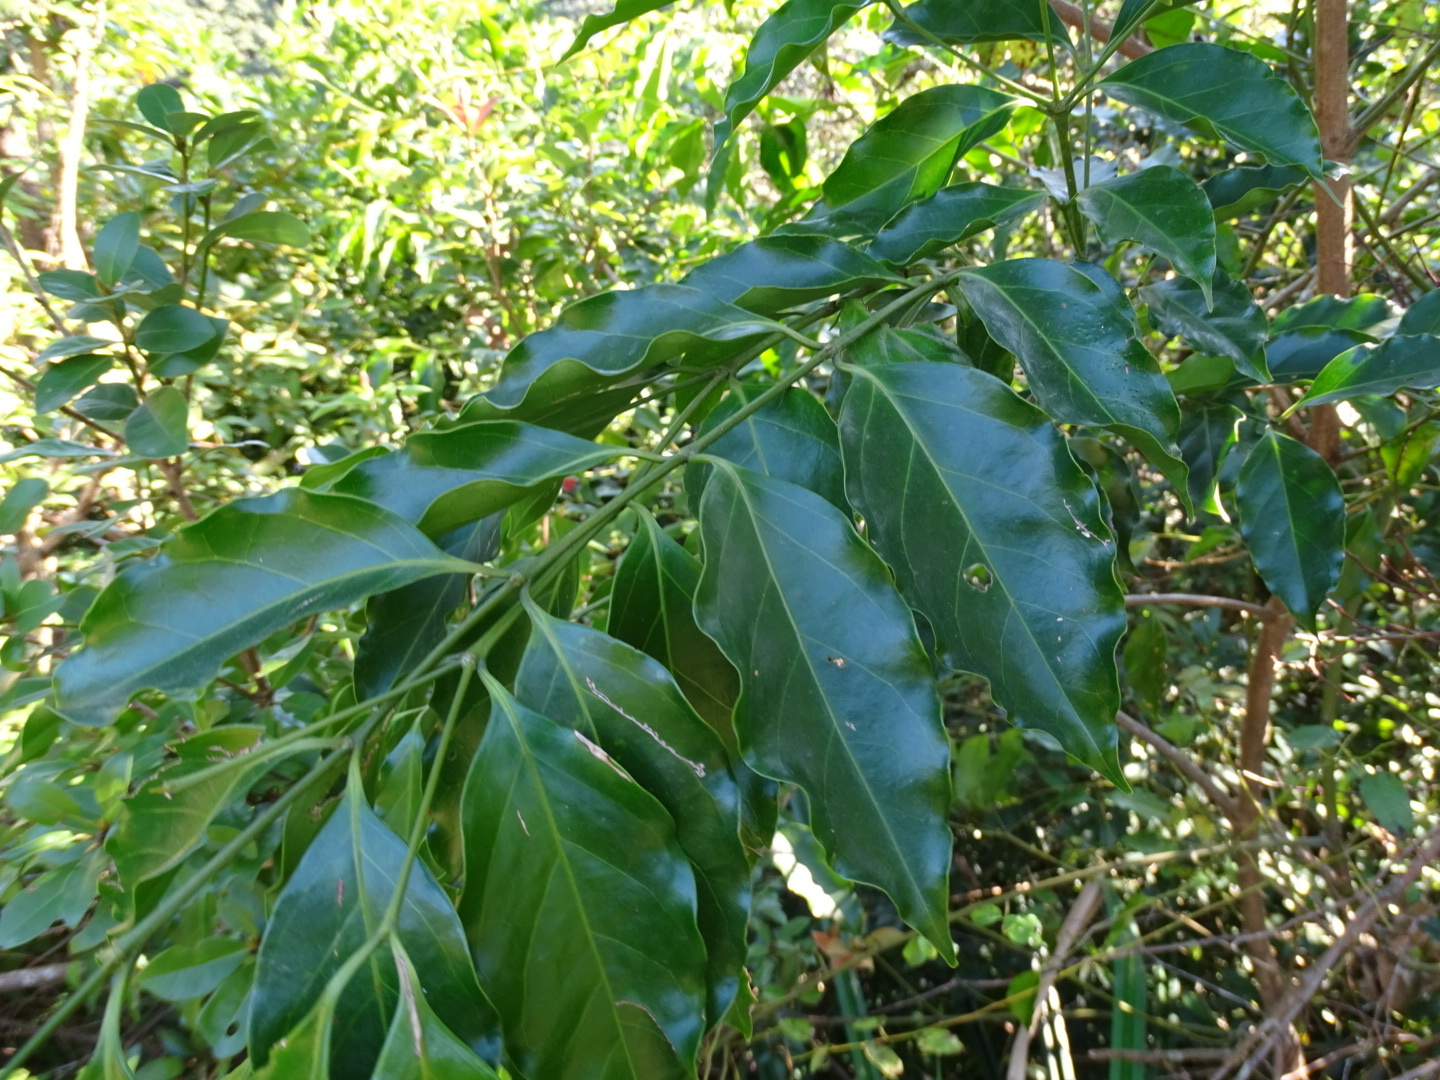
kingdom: Plantae
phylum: Tracheophyta
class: Magnoliopsida
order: Gentianales
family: Rubiaceae
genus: Psydrax
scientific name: Psydrax dicoccos
